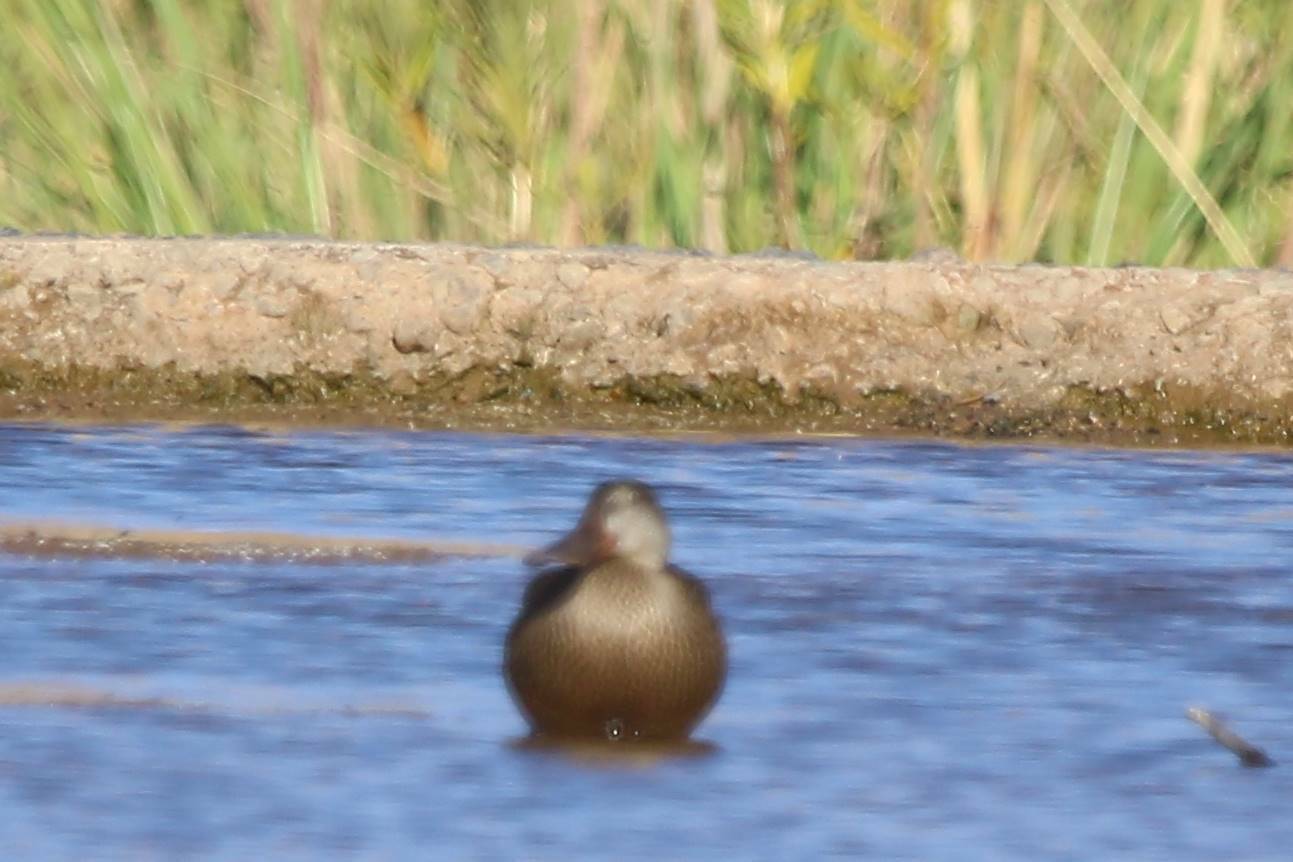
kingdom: Animalia
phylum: Chordata
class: Aves
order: Anseriformes
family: Anatidae
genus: Spatula
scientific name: Spatula clypeata
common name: Northern shoveler
